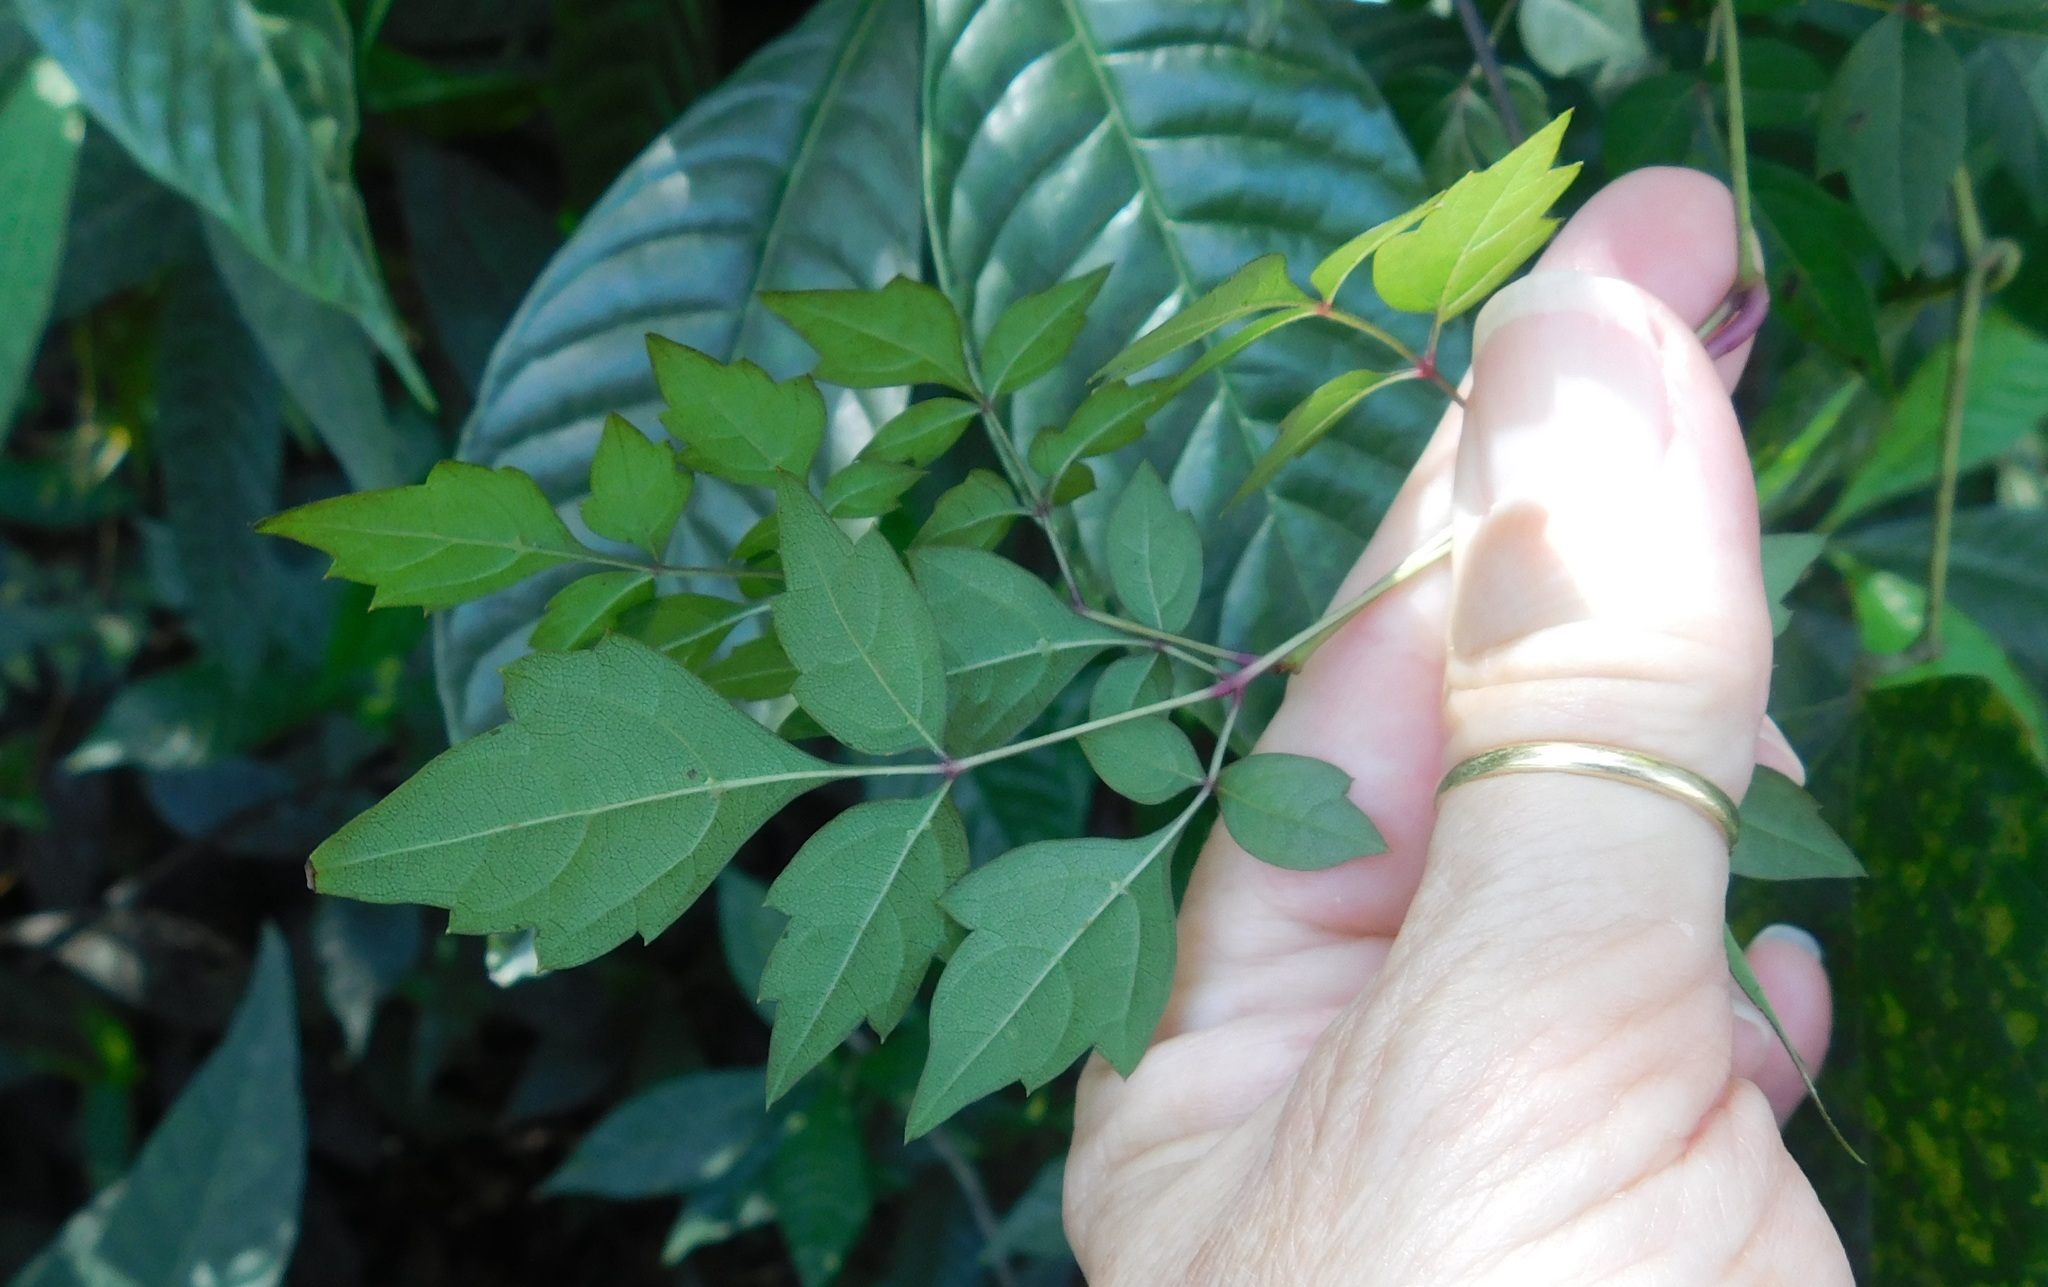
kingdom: Plantae
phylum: Tracheophyta
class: Magnoliopsida
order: Vitales
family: Vitaceae
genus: Nekemias
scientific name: Nekemias arborea
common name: Peppervine
